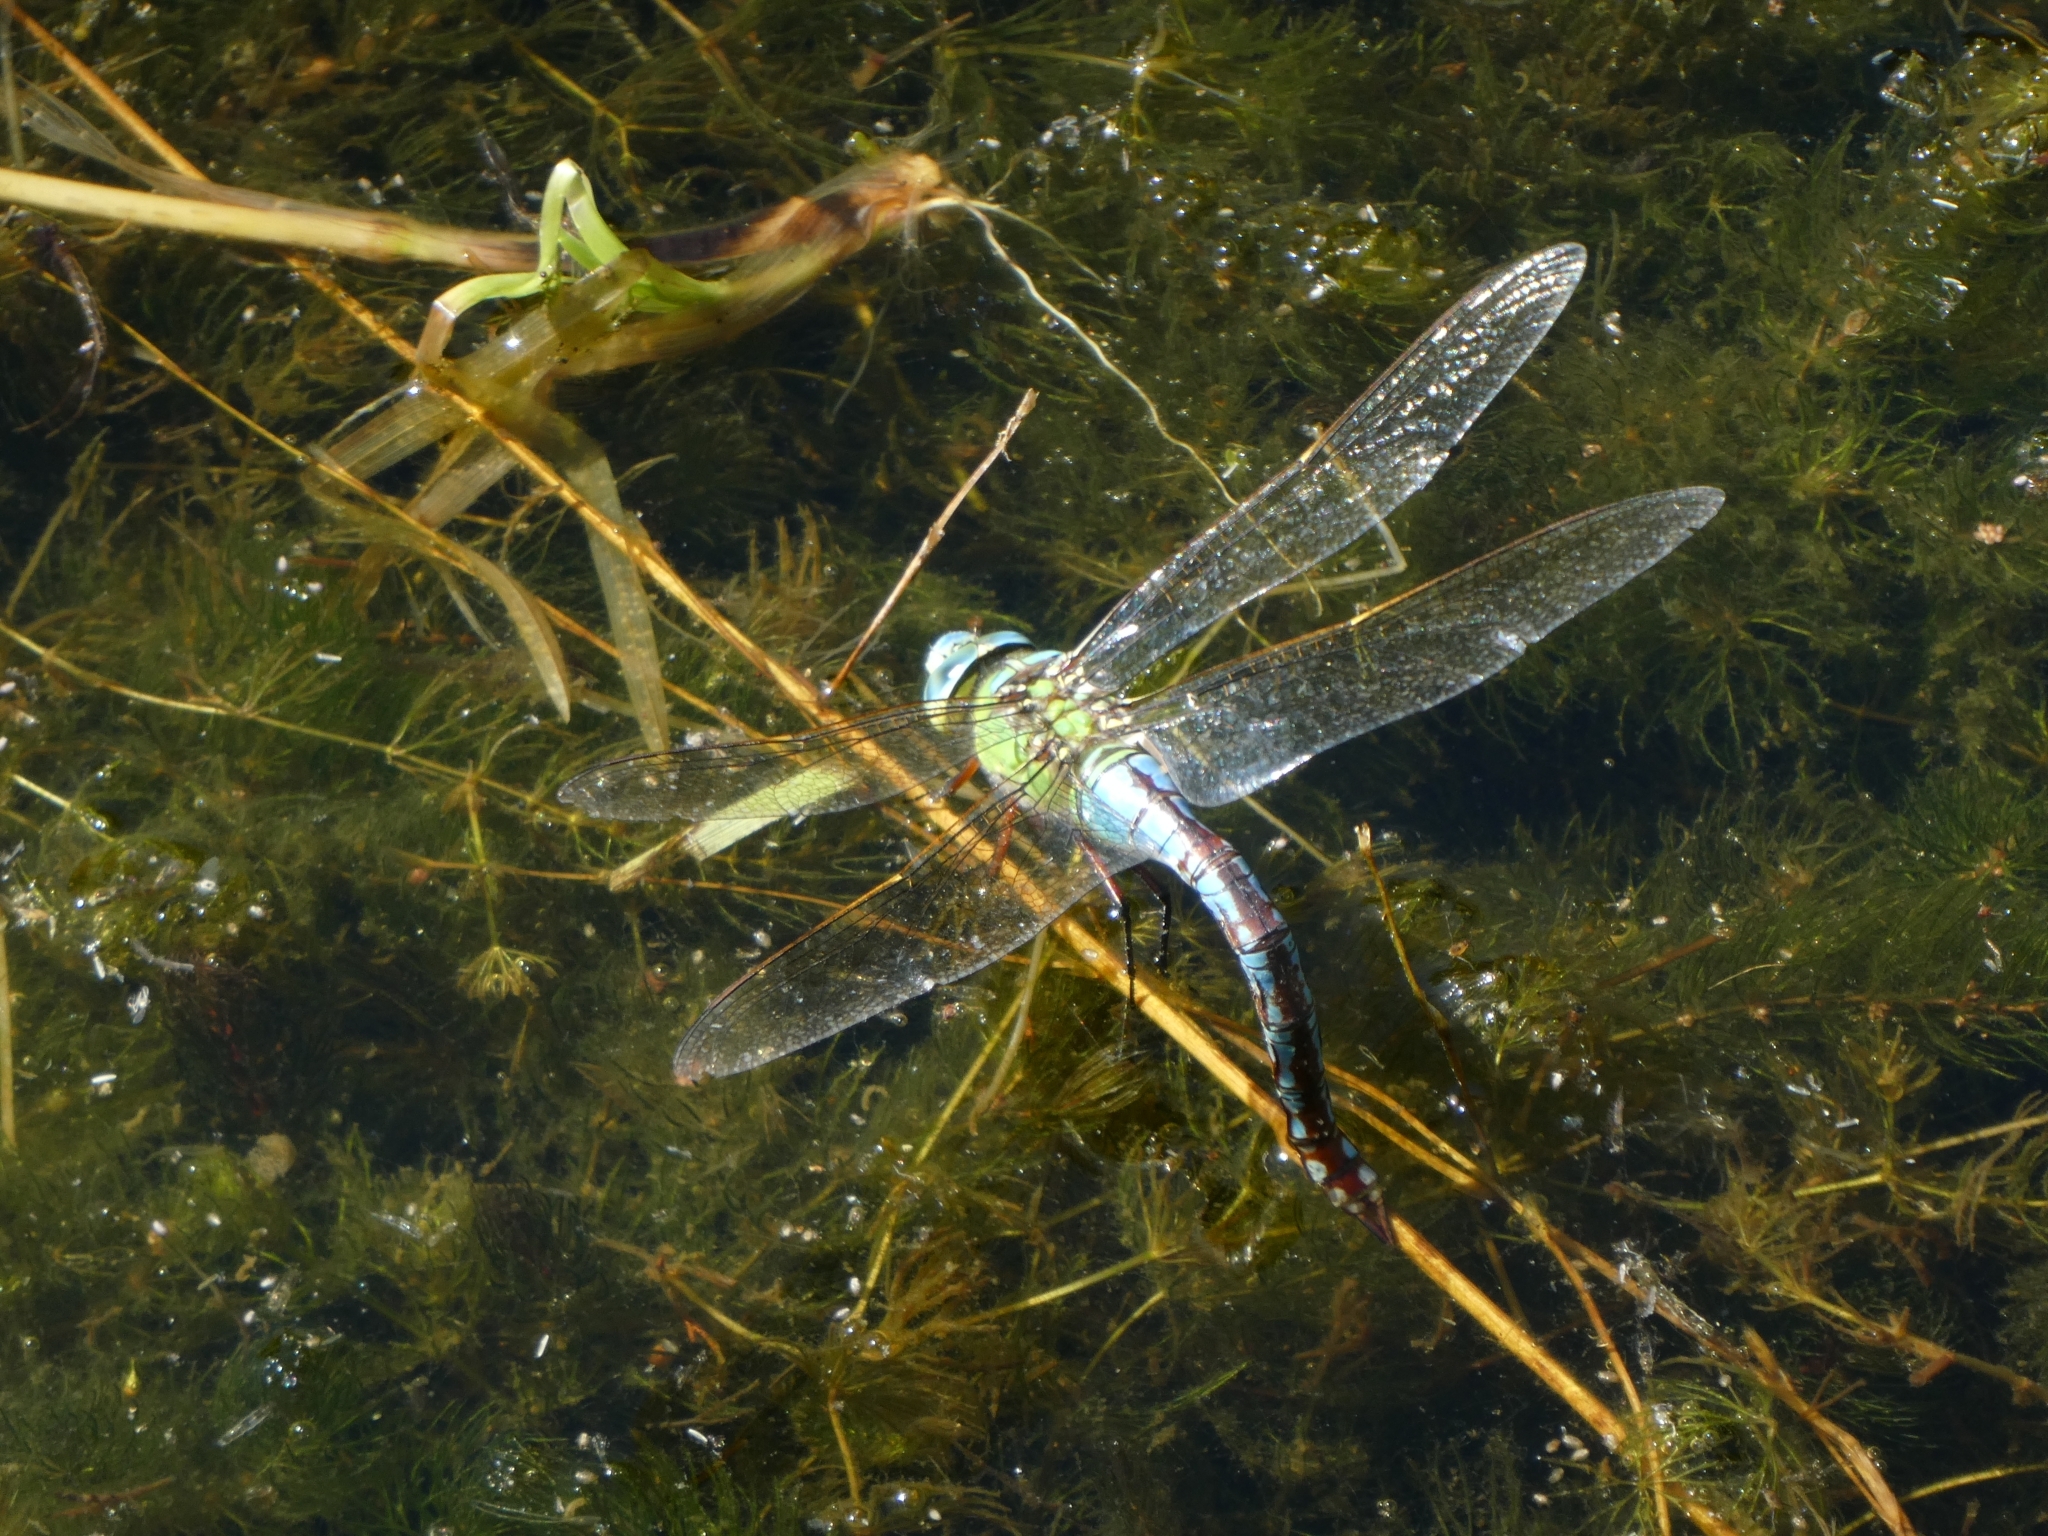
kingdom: Animalia
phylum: Arthropoda
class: Insecta
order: Odonata
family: Aeshnidae
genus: Anax
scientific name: Anax imperator
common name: Emperor dragonfly
